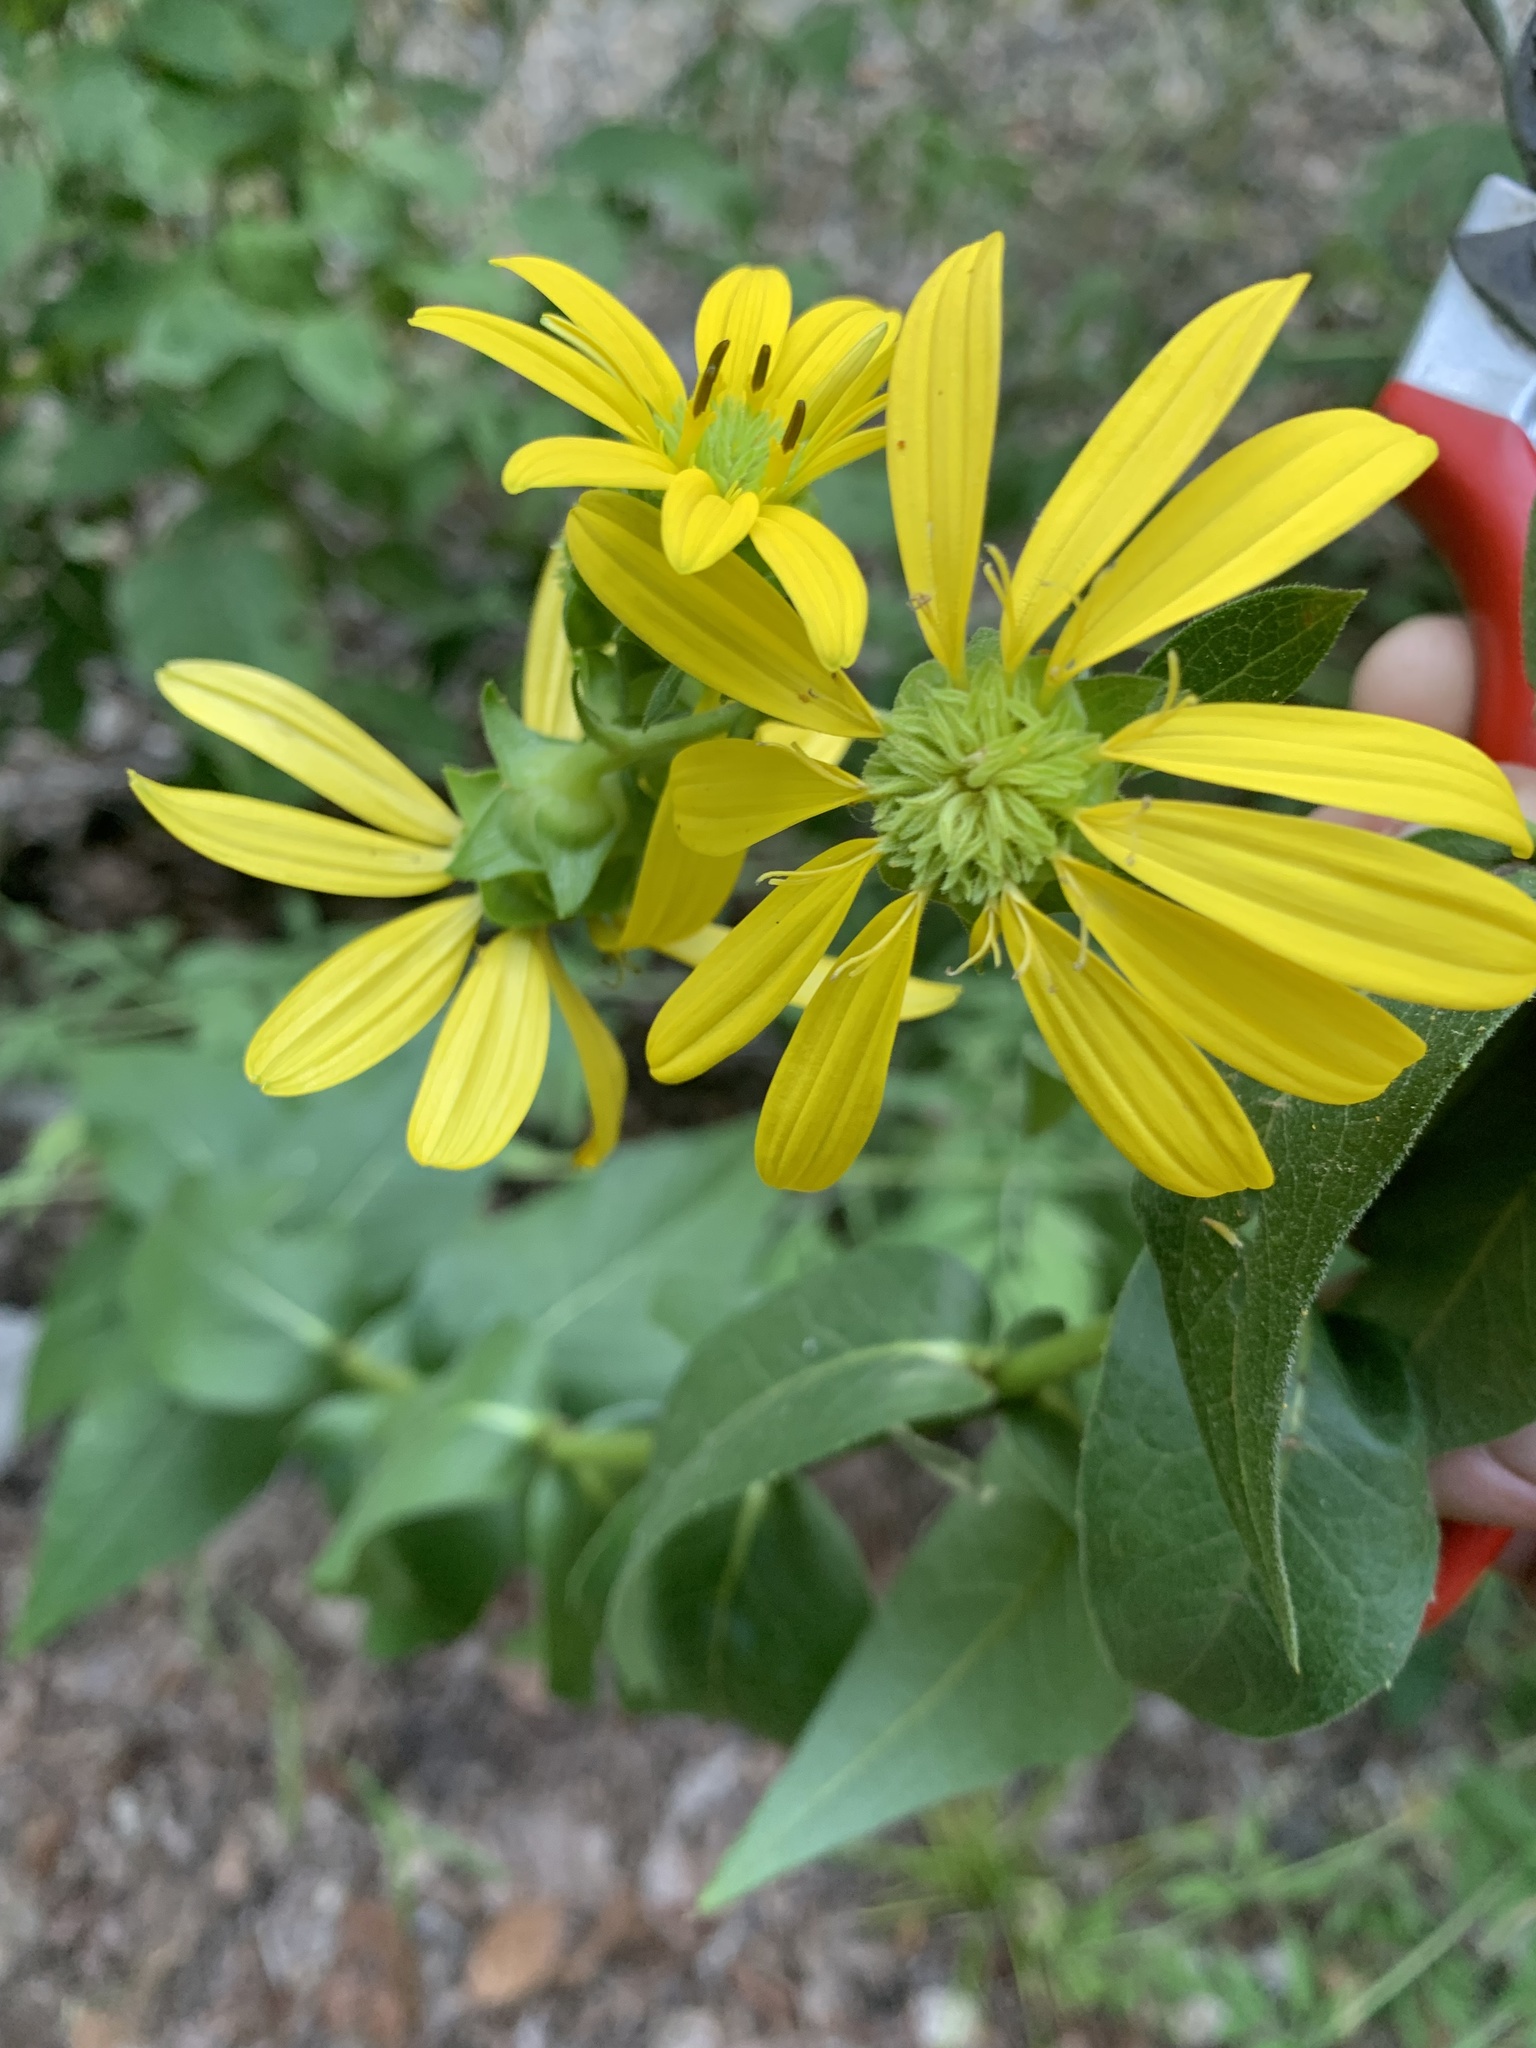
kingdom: Plantae
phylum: Tracheophyta
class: Magnoliopsida
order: Asterales
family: Asteraceae
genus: Silphium
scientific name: Silphium integrifolium
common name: Whole-leaf rosinweed
